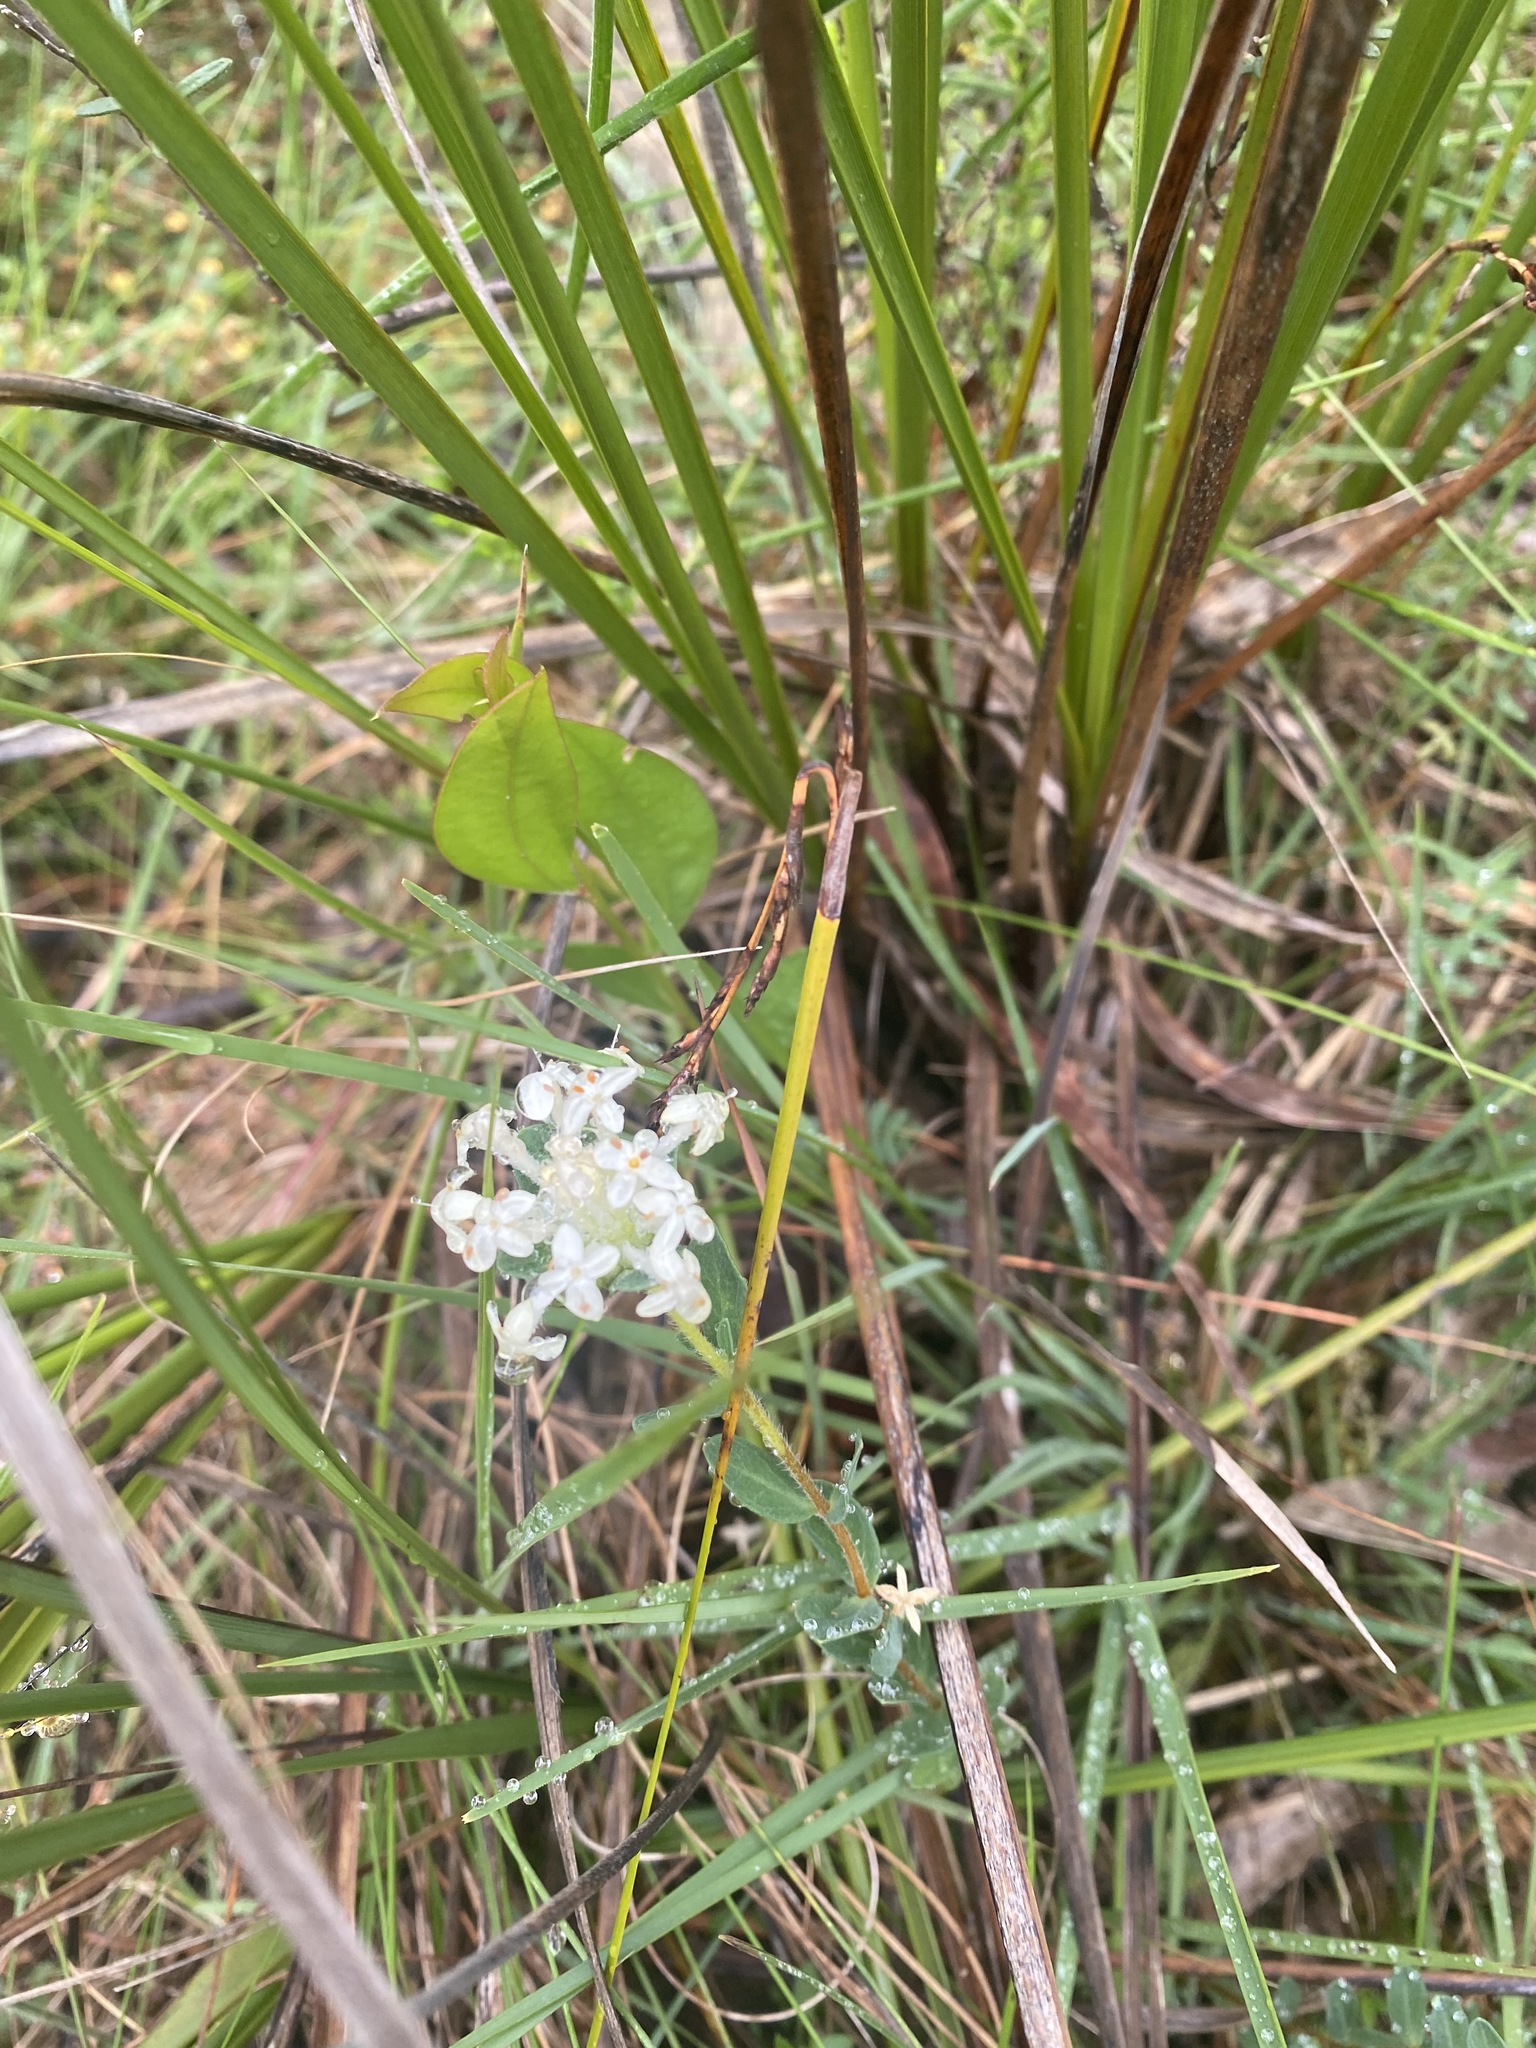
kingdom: Plantae
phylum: Tracheophyta
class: Magnoliopsida
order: Malvales
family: Thymelaeaceae
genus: Pimelea
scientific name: Pimelea humilis
